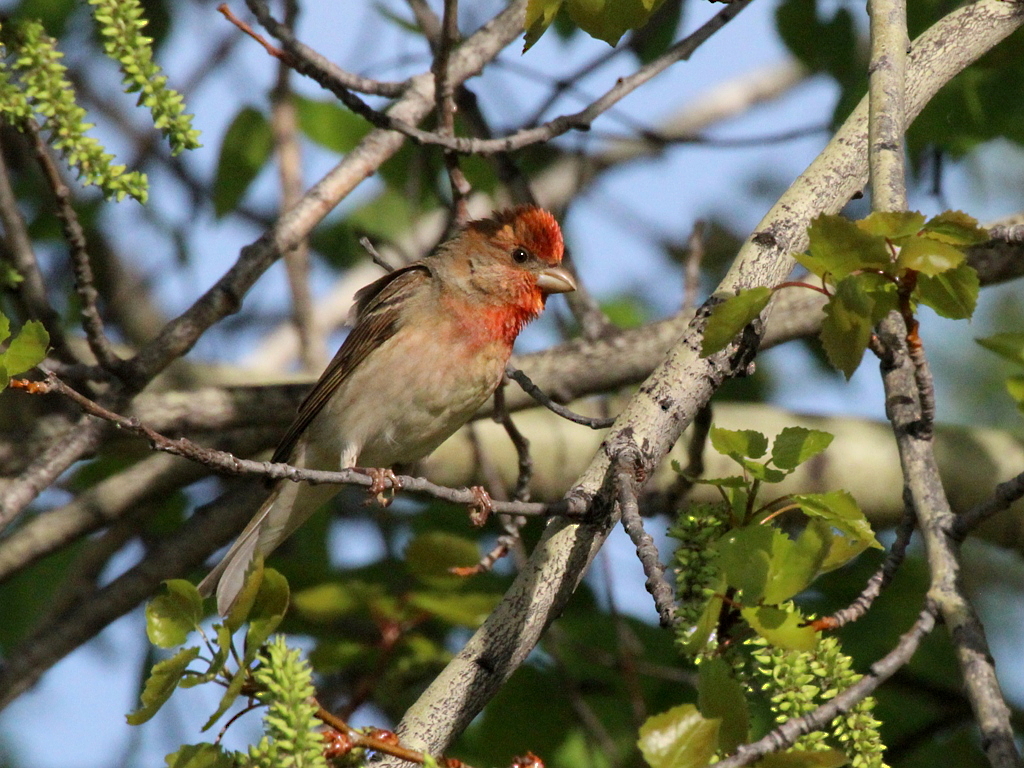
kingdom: Animalia
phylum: Chordata
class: Aves
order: Passeriformes
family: Fringillidae
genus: Carpodacus
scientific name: Carpodacus erythrinus
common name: Common rosefinch
